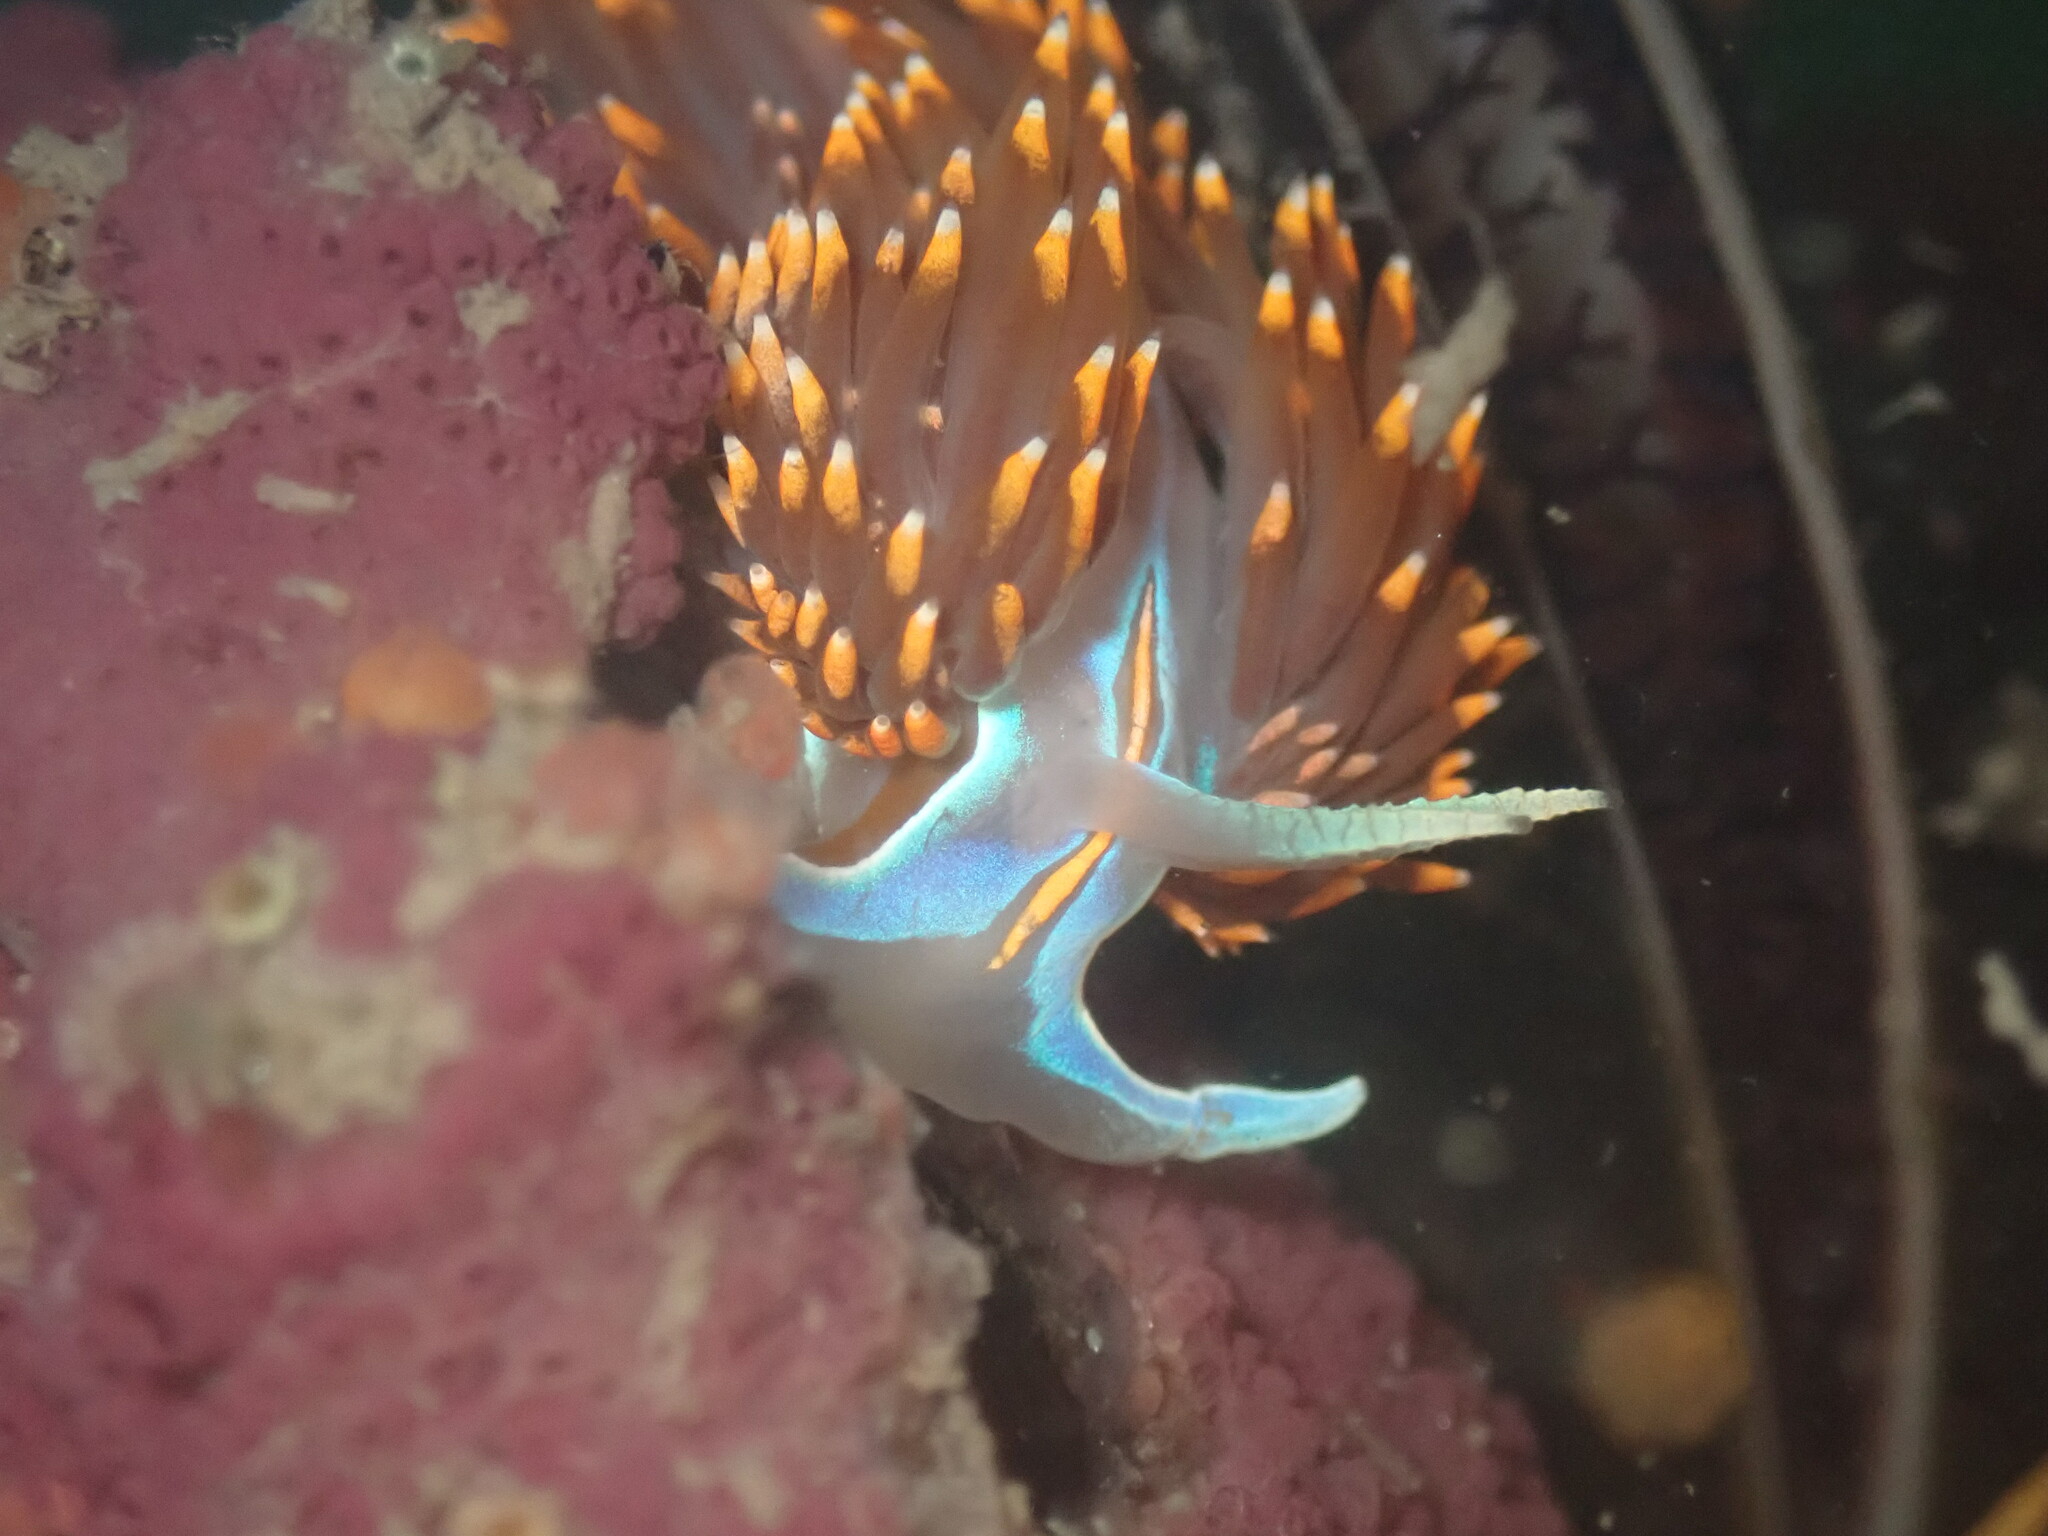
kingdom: Animalia
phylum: Mollusca
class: Gastropoda
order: Nudibranchia
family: Myrrhinidae
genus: Hermissenda
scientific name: Hermissenda opalescens
